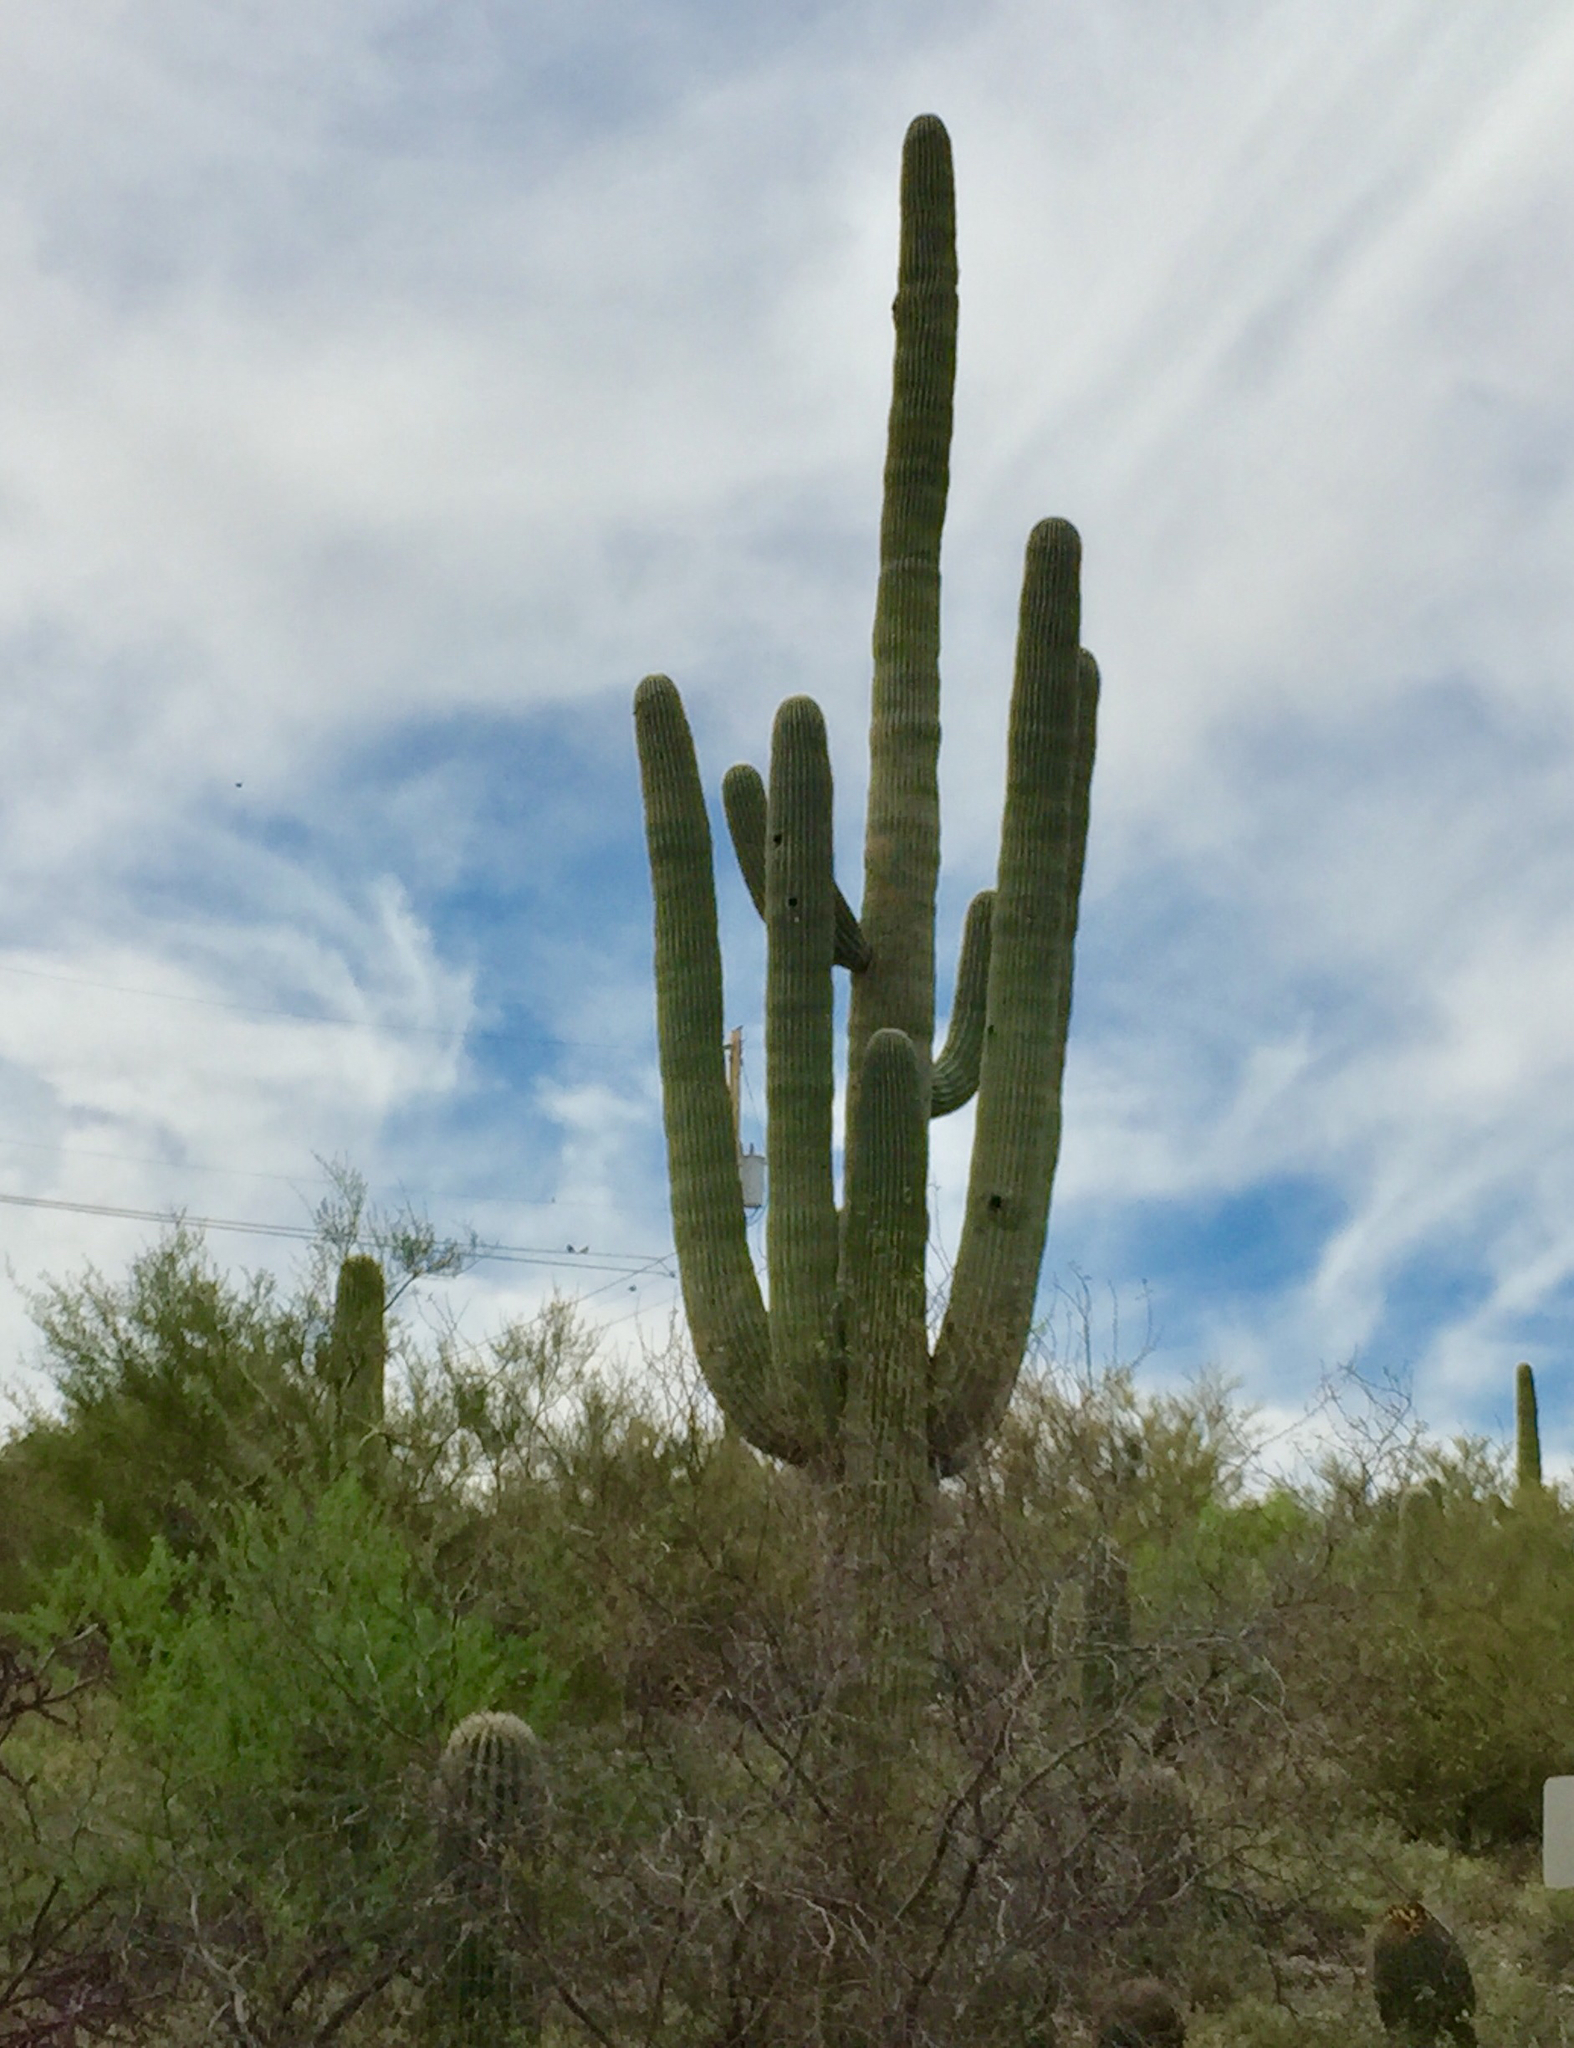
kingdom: Plantae
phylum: Tracheophyta
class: Magnoliopsida
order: Caryophyllales
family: Cactaceae
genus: Carnegiea
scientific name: Carnegiea gigantea
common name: Saguaro
